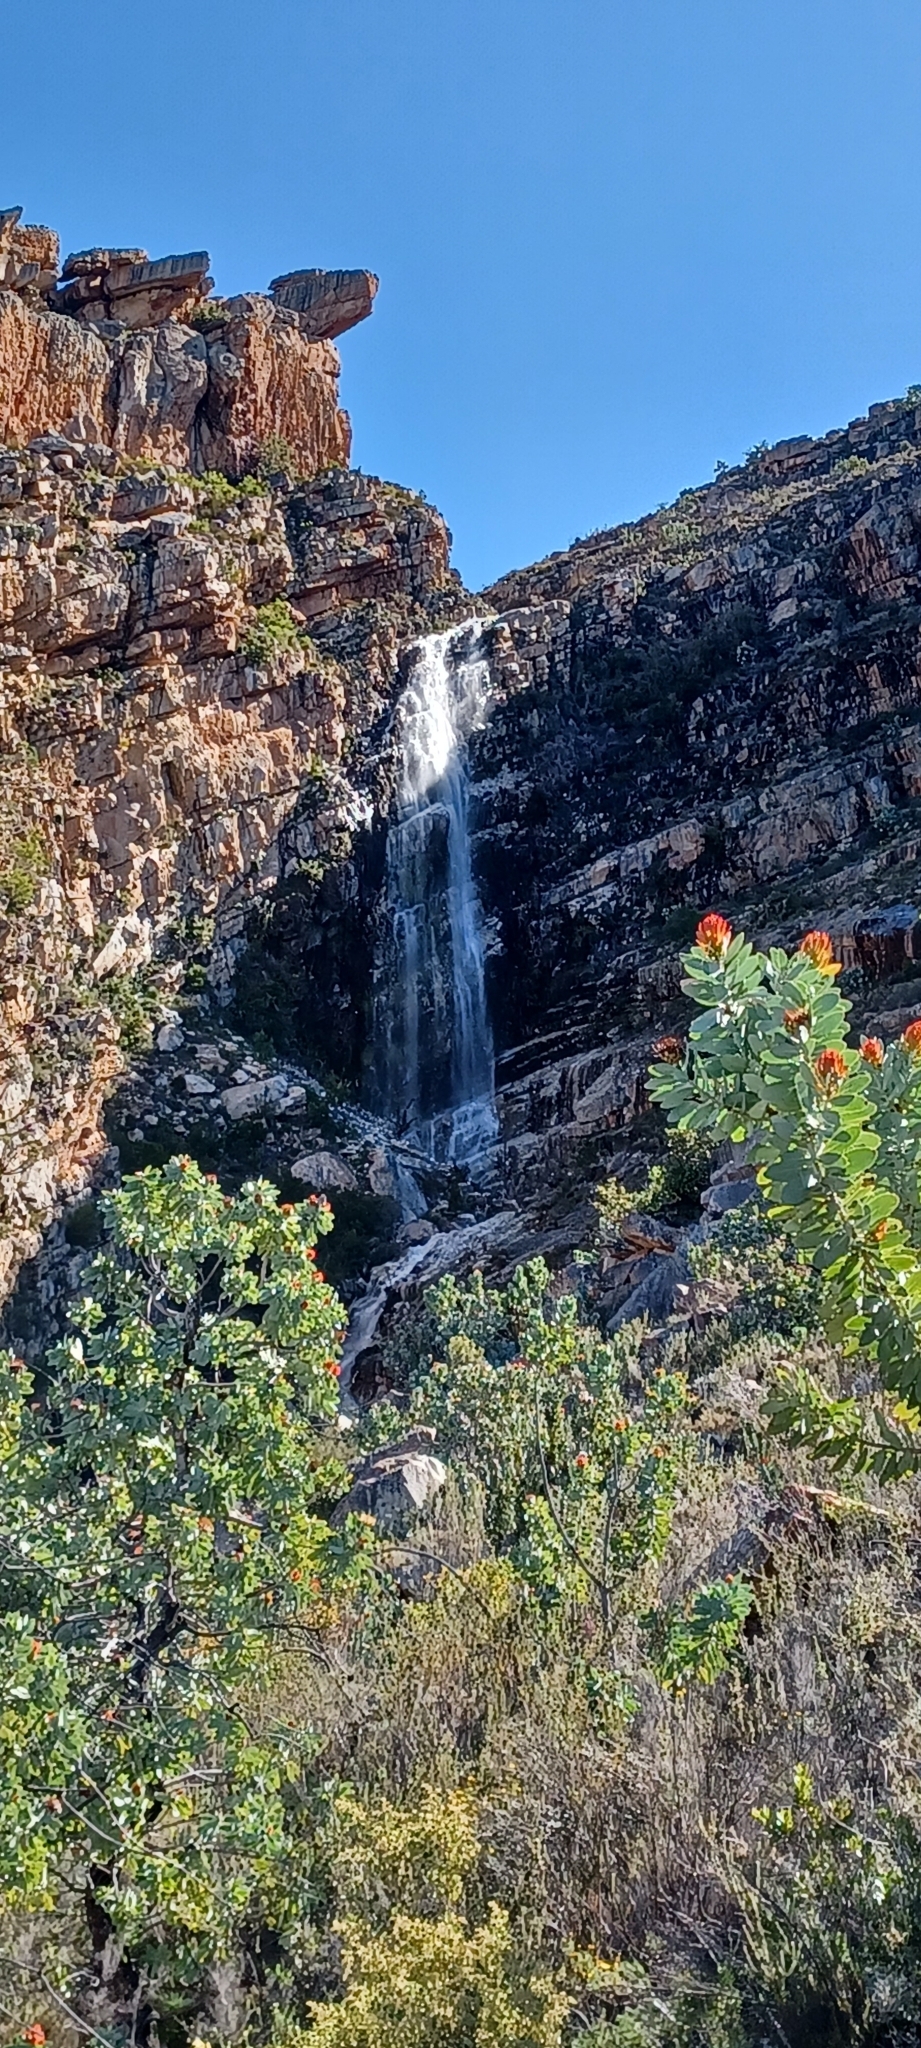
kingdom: Plantae
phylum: Tracheophyta
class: Magnoliopsida
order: Proteales
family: Proteaceae
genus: Protea
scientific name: Protea nitida
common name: Tree protea
